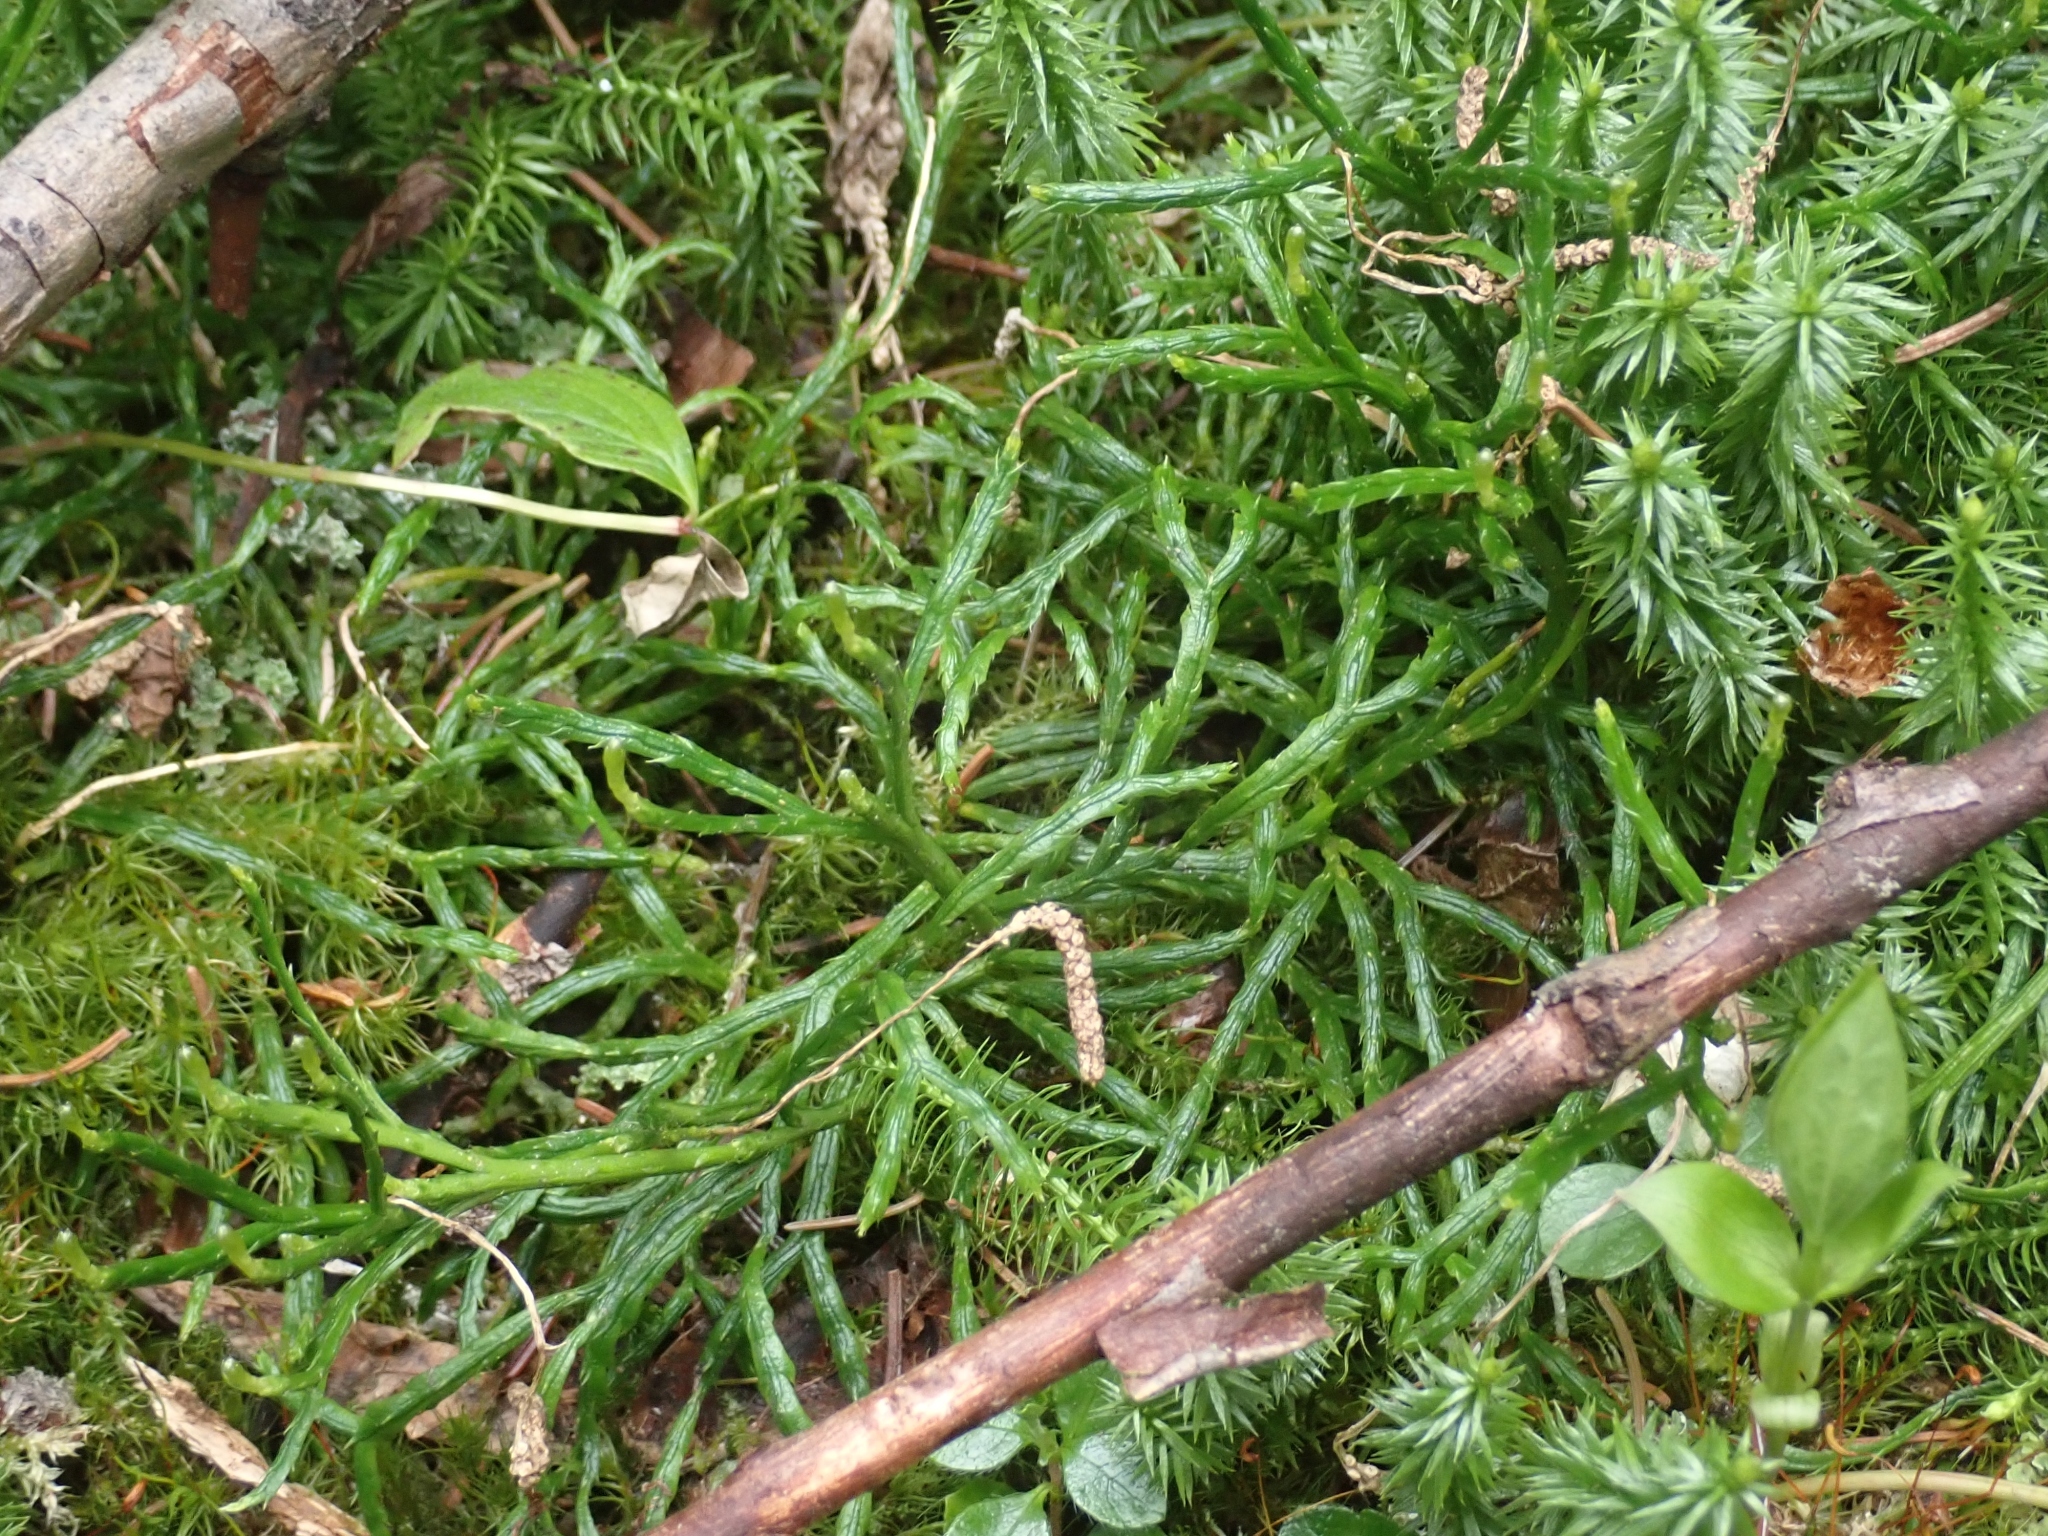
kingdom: Plantae
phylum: Tracheophyta
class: Lycopodiopsida
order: Lycopodiales
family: Lycopodiaceae
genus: Diphasiastrum
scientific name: Diphasiastrum complanatum
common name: Northern running-pine
